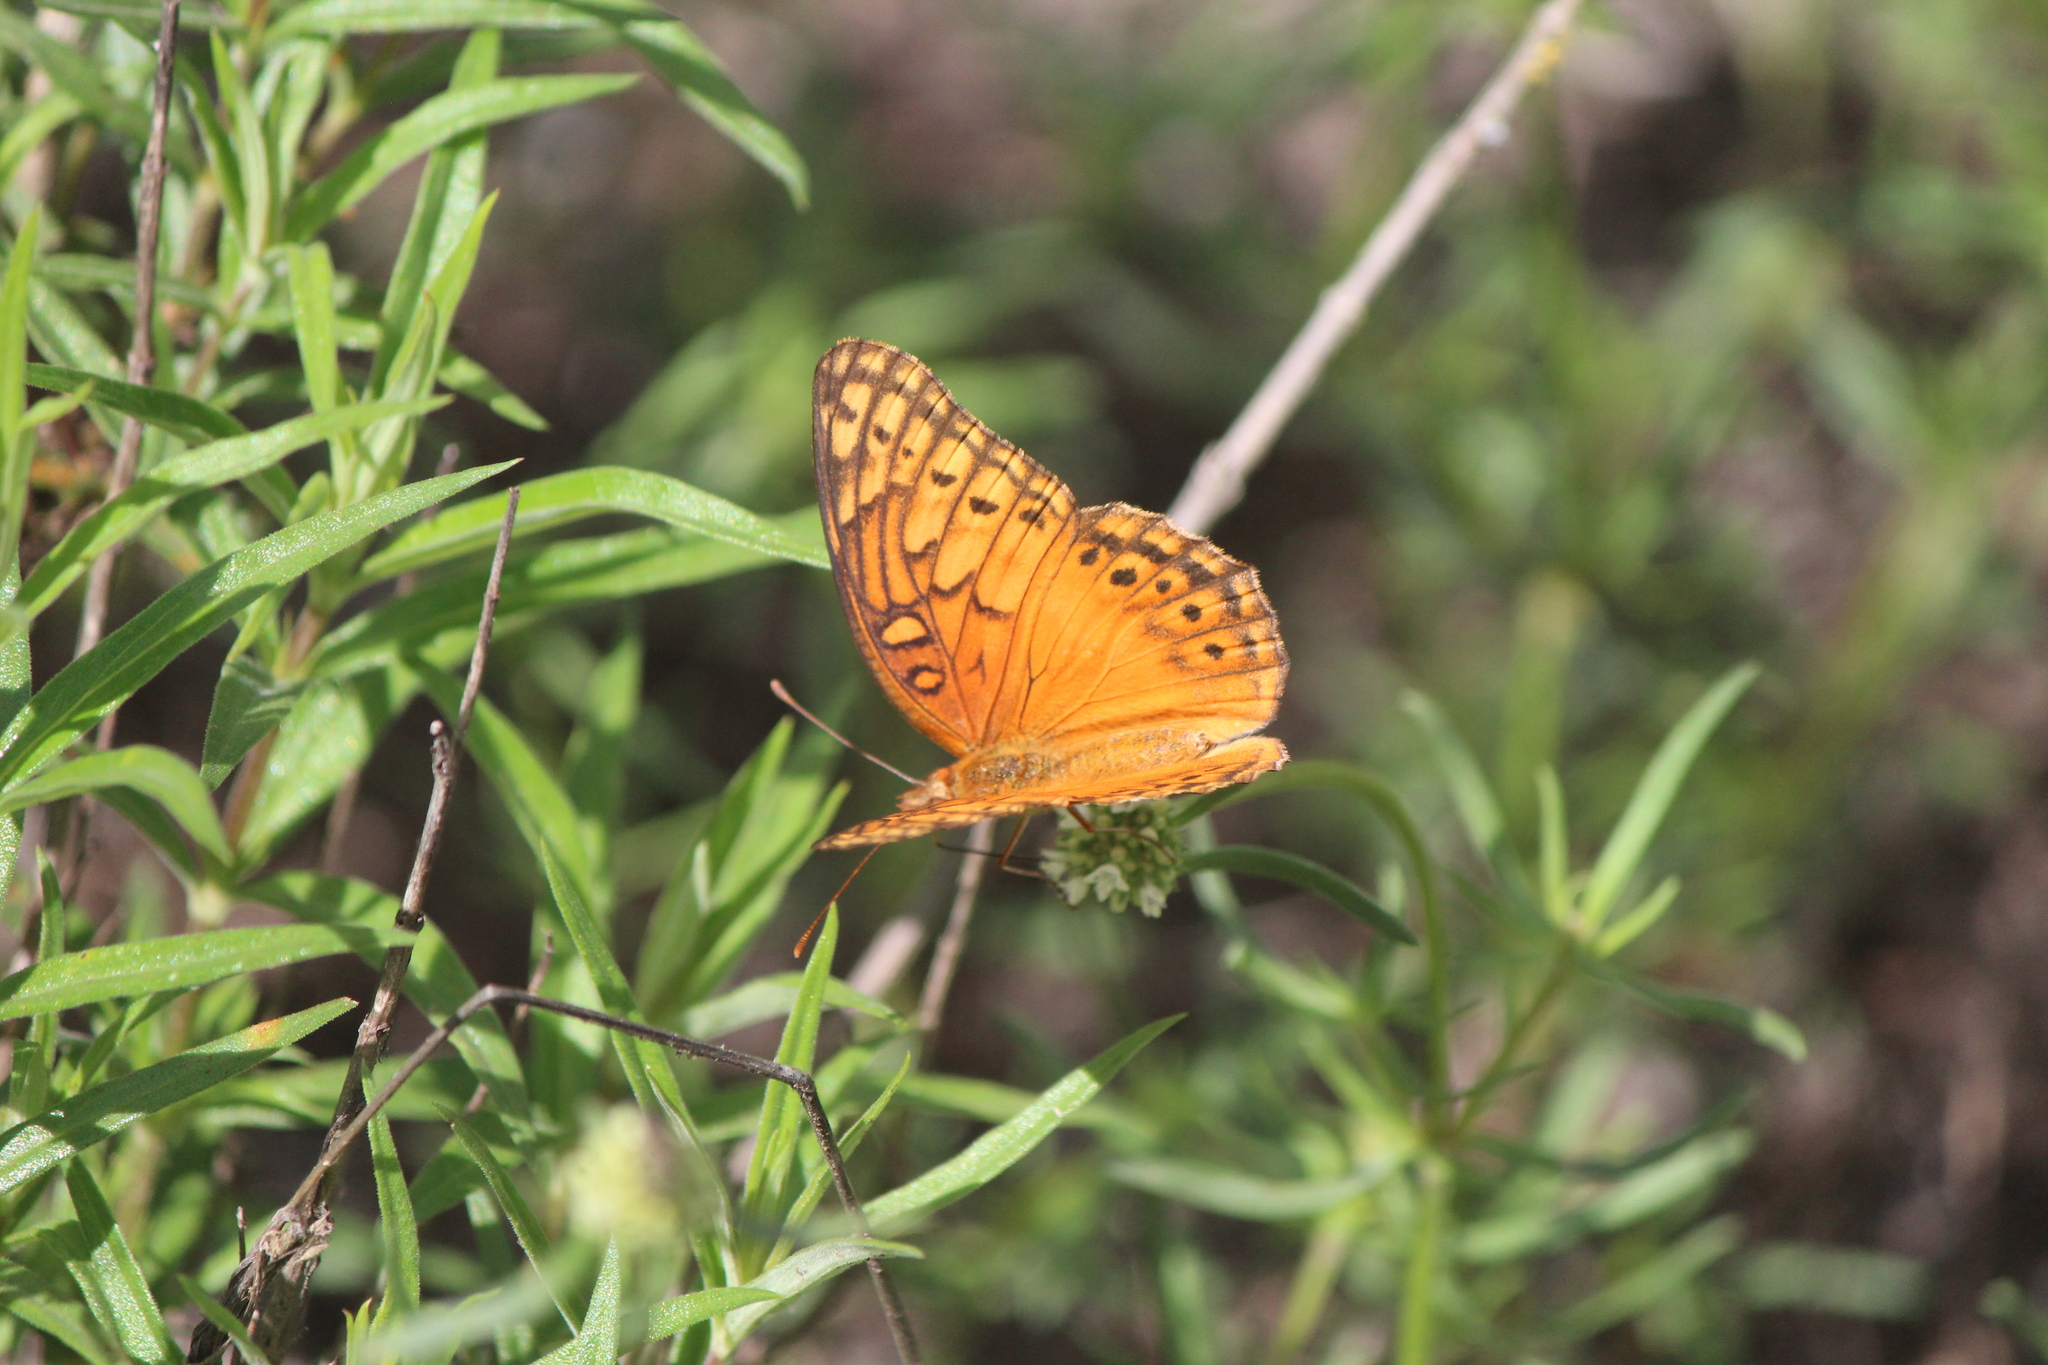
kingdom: Animalia
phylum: Arthropoda
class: Insecta
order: Lepidoptera
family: Nymphalidae
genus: Euptoieta
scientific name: Euptoieta hegesia
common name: Mexican fritillary
